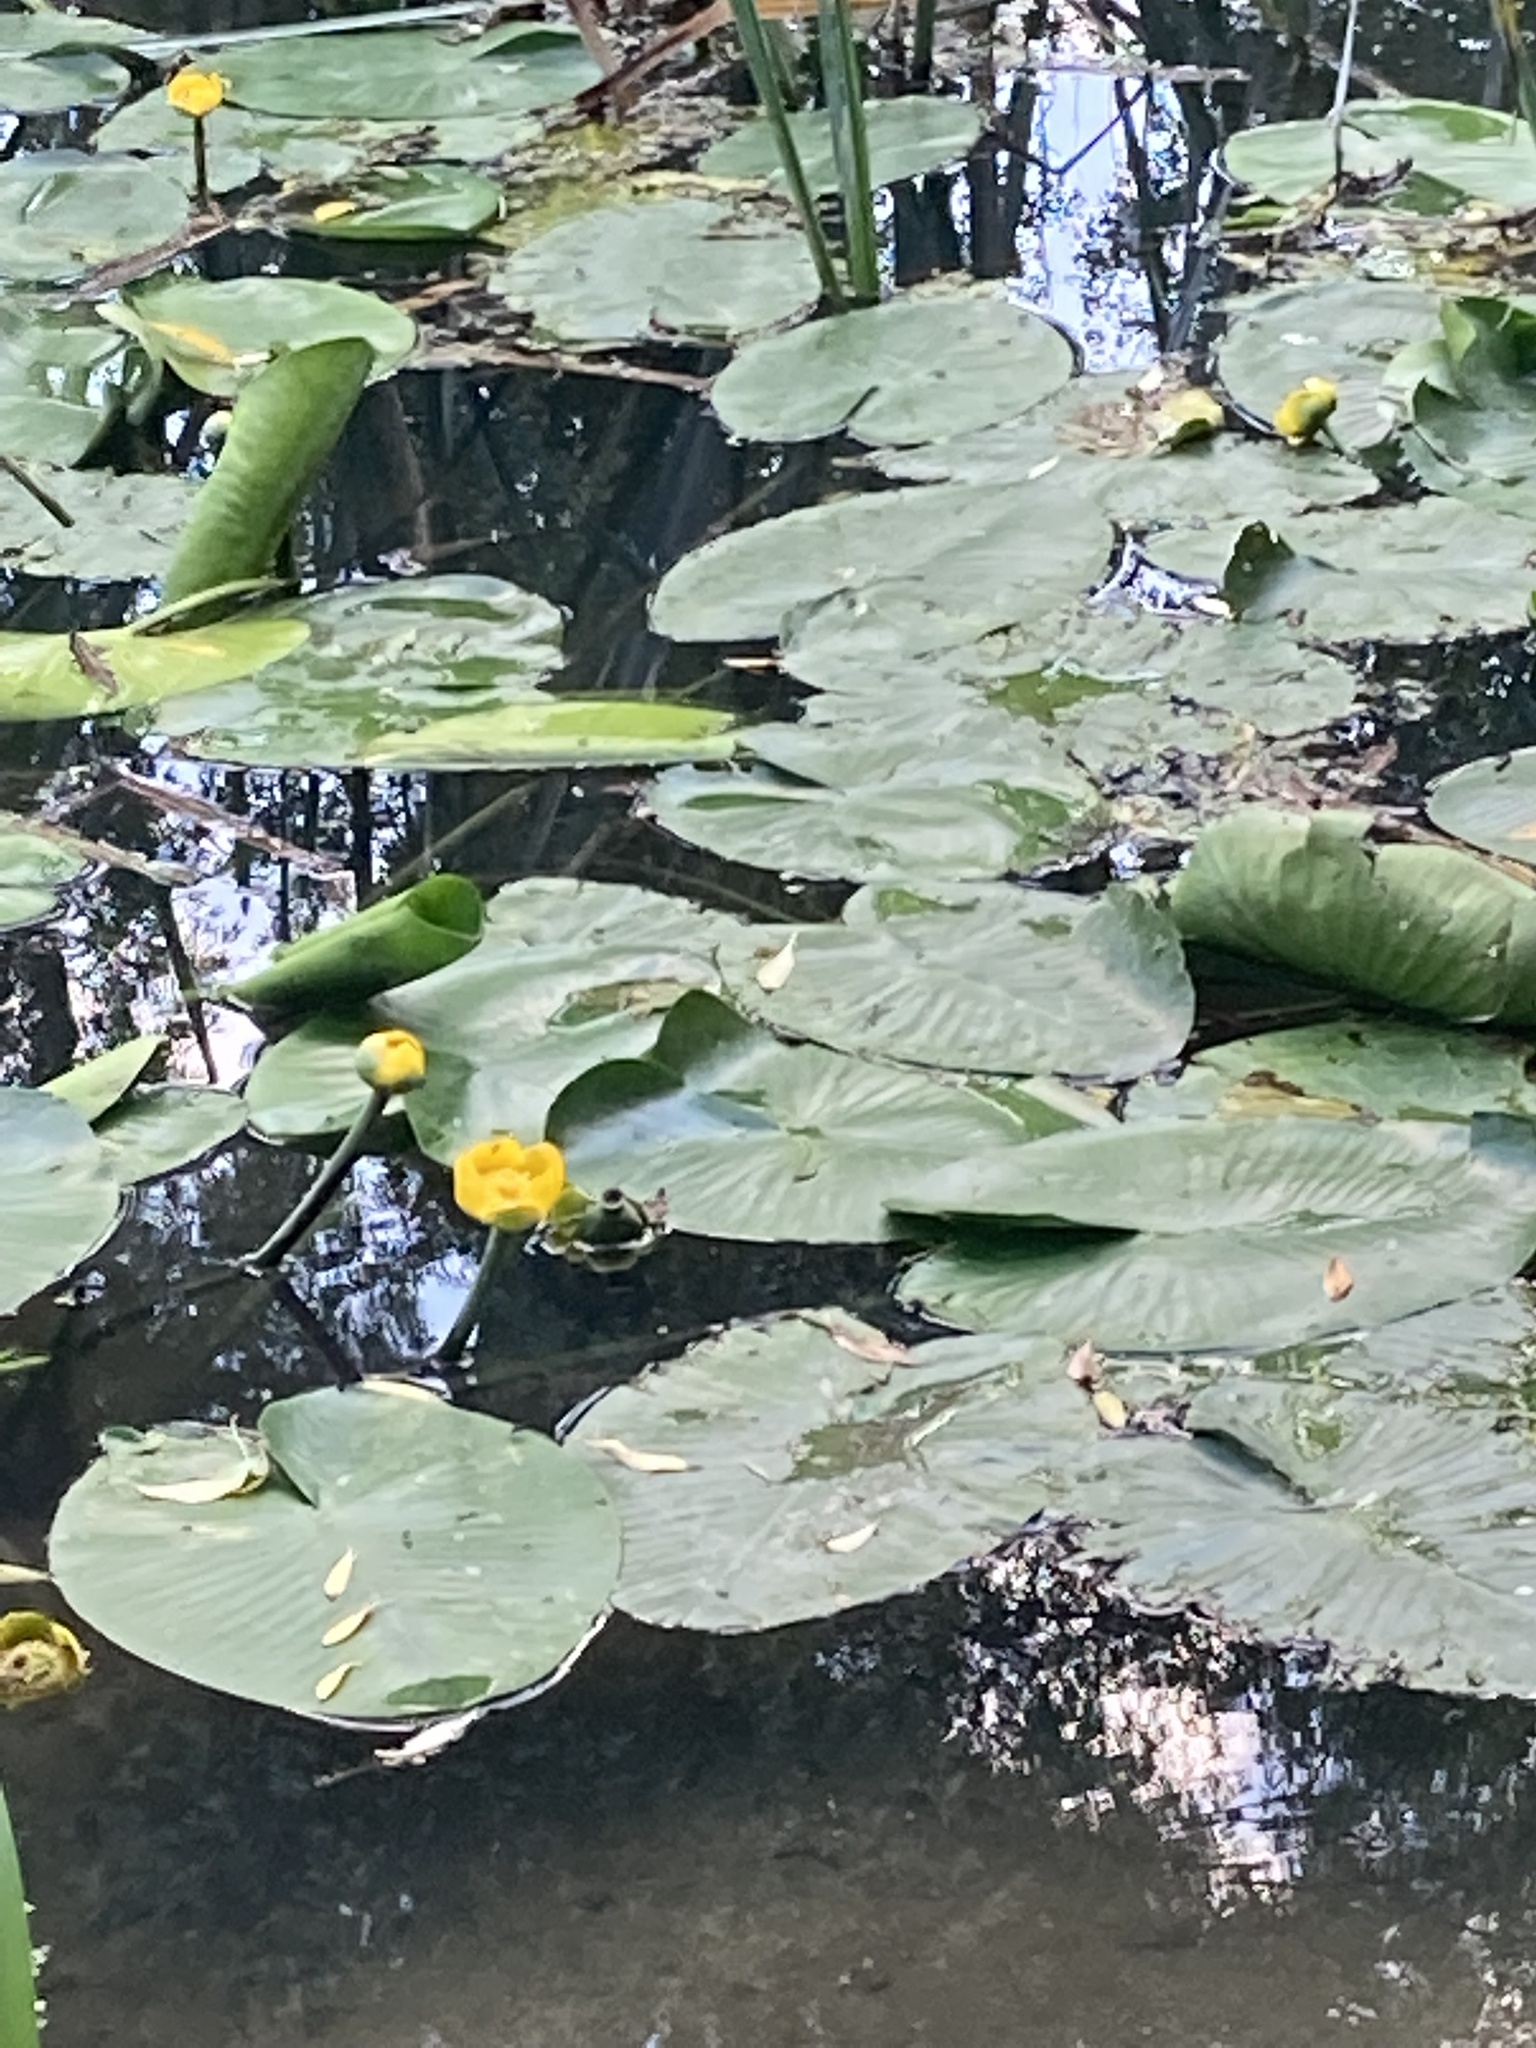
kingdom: Plantae
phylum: Tracheophyta
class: Magnoliopsida
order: Nymphaeales
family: Nymphaeaceae
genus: Nuphar
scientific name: Nuphar lutea
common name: Yellow water-lily
